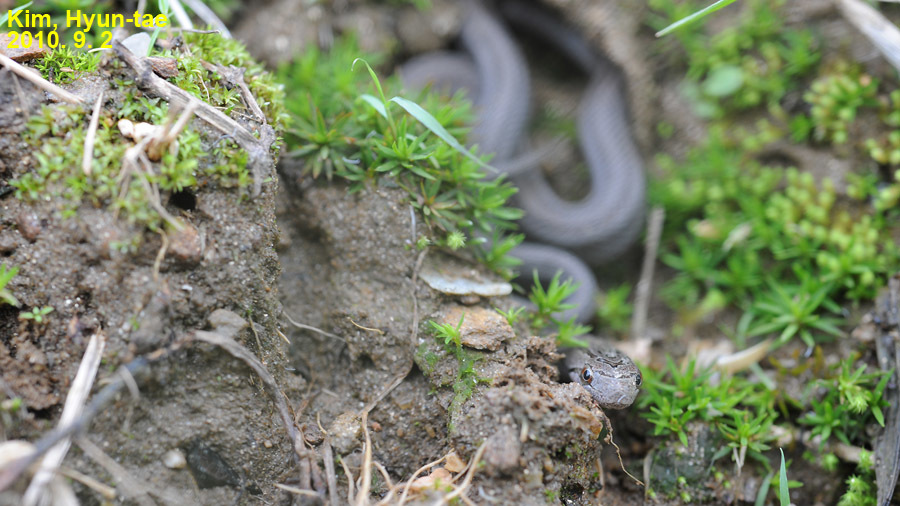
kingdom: Animalia
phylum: Chordata
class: Squamata
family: Colubridae
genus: Oocatochus
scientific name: Oocatochus rufodorsatus
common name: Frog-eating rat snake
